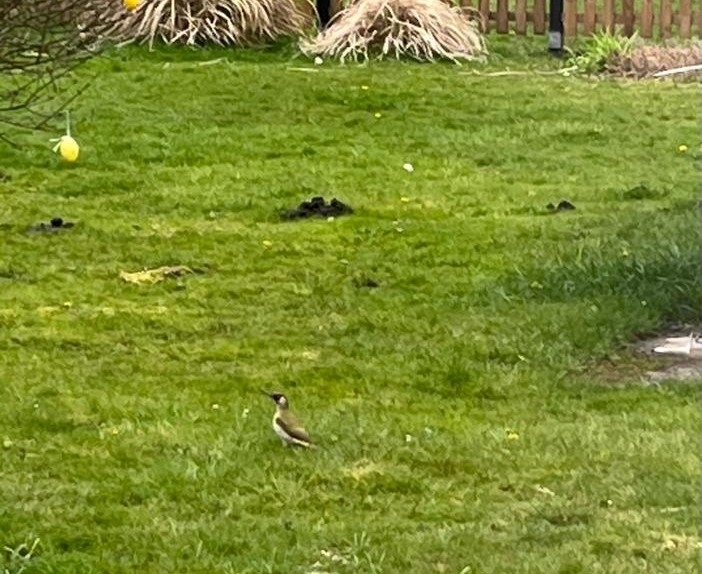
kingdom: Animalia
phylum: Chordata
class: Aves
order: Piciformes
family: Picidae
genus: Picus
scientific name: Picus viridis
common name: European green woodpecker
